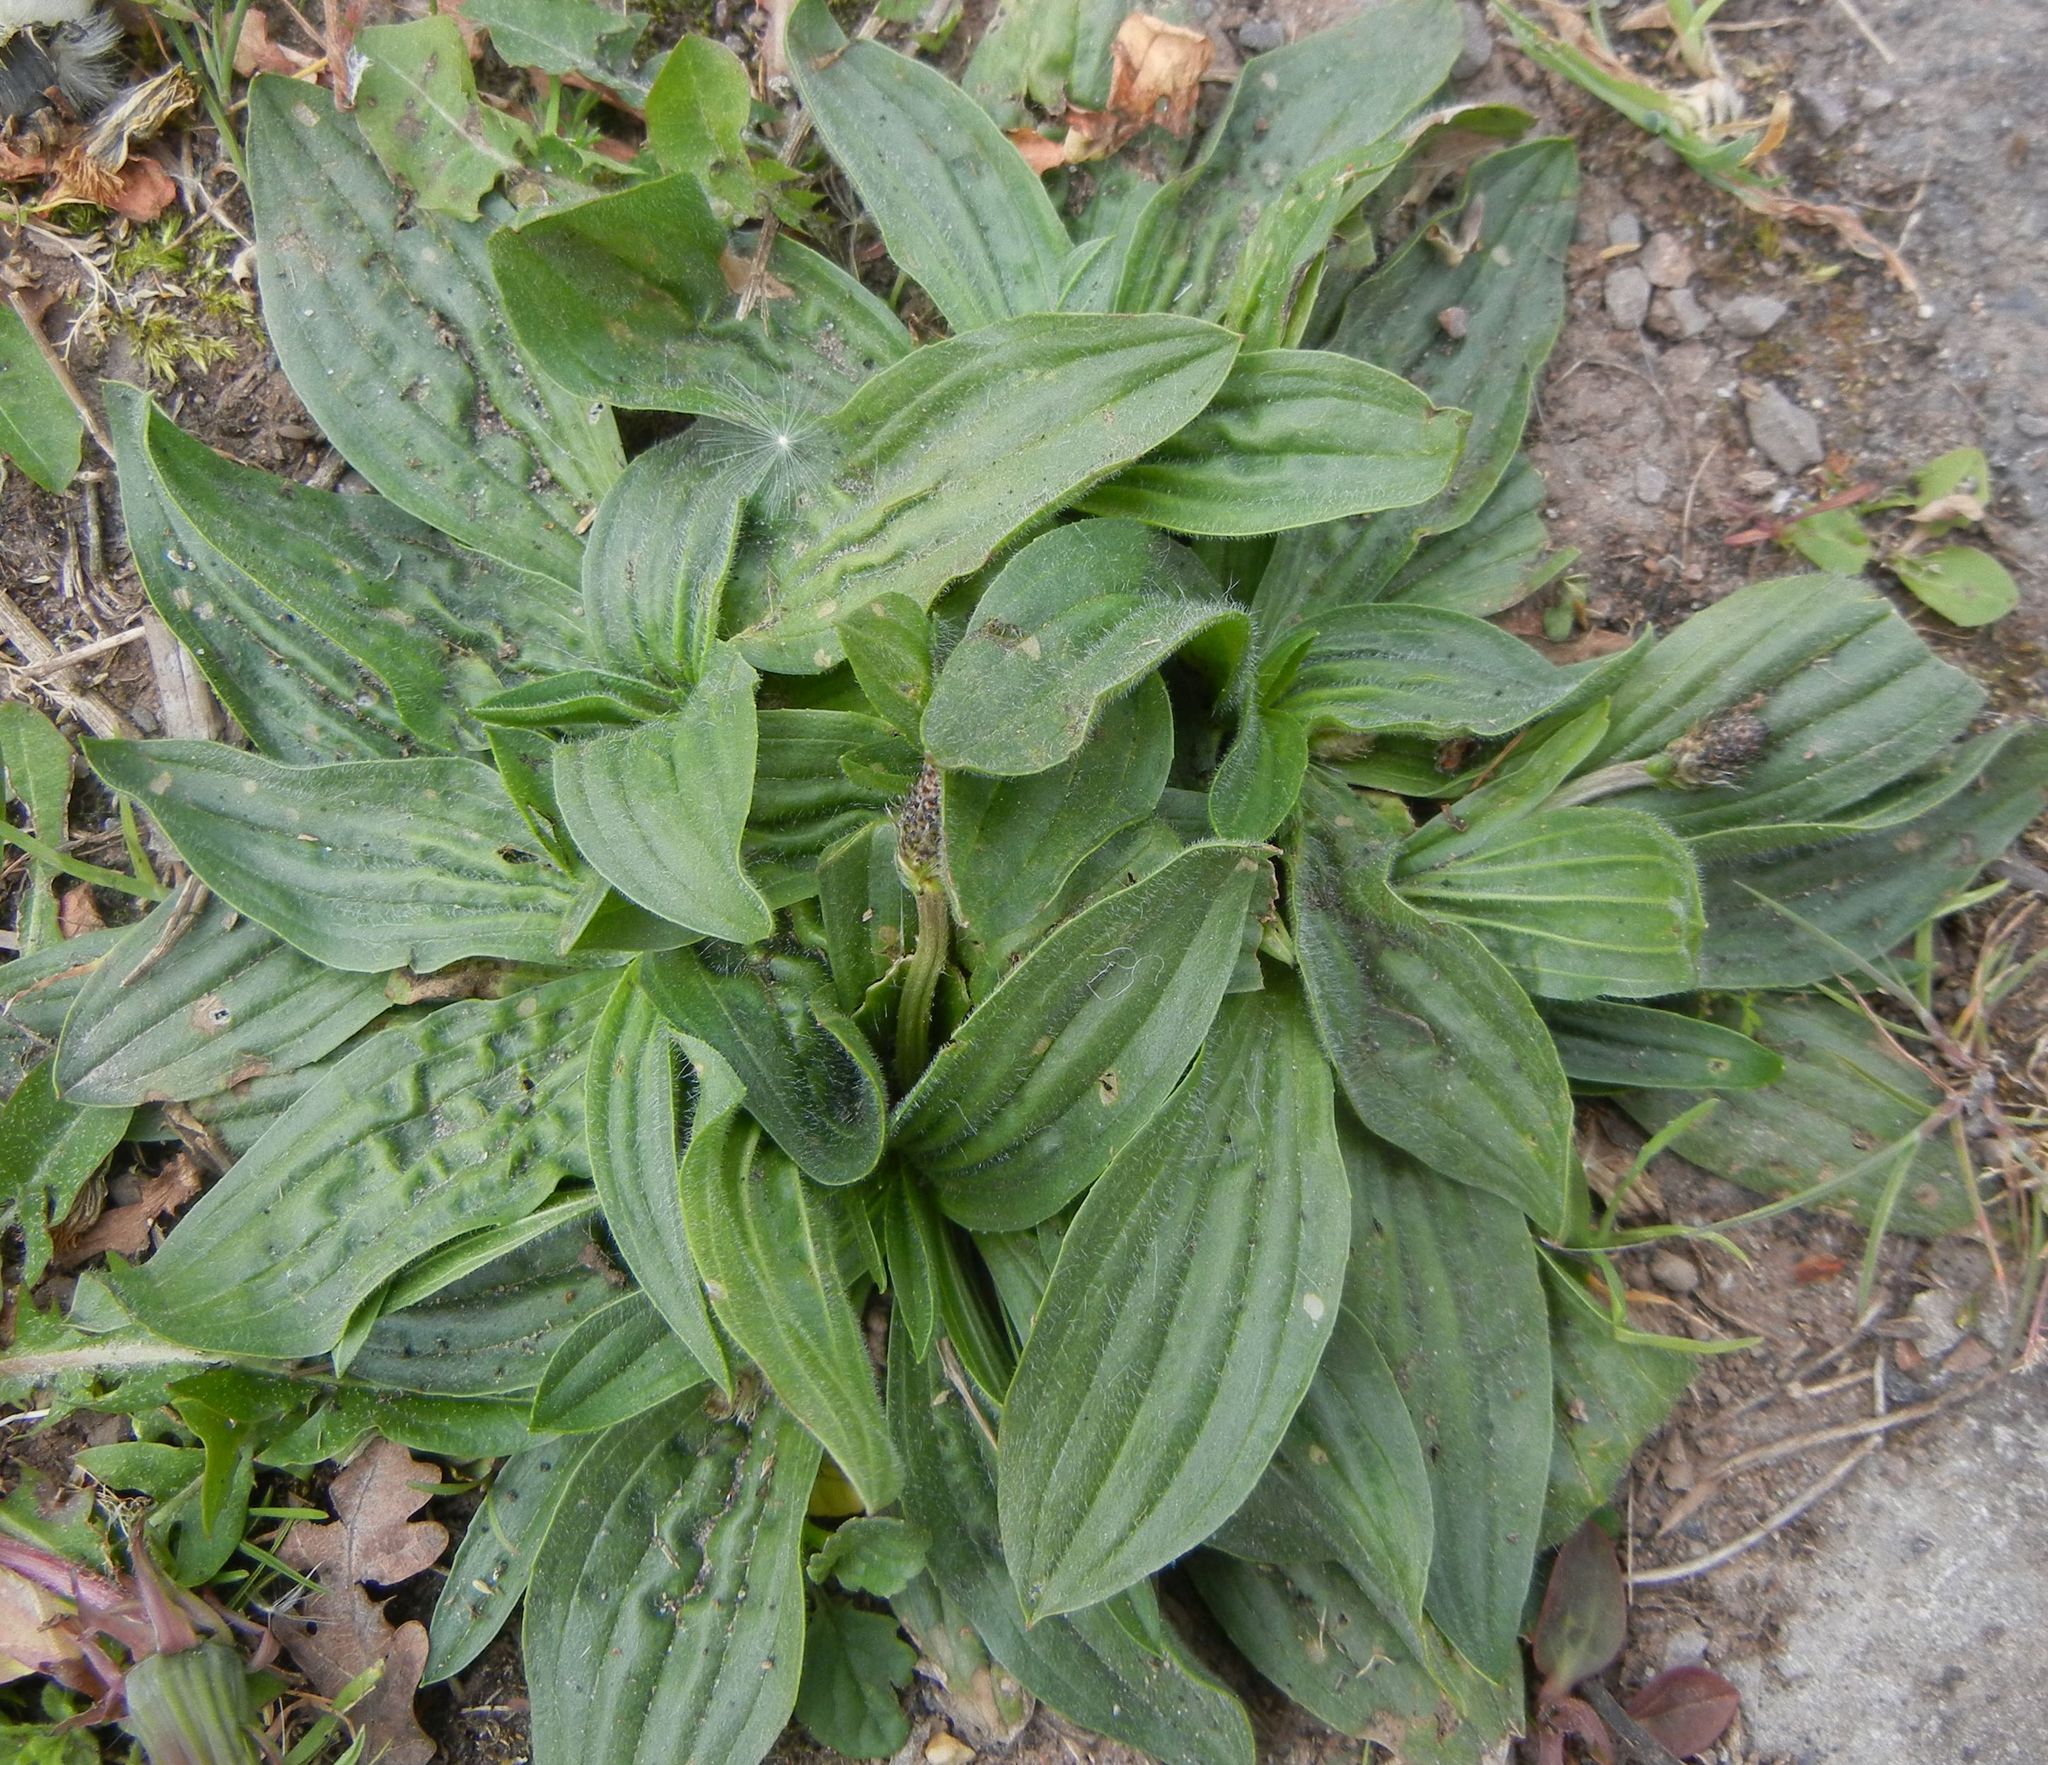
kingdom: Plantae
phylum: Tracheophyta
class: Magnoliopsida
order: Lamiales
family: Plantaginaceae
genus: Plantago
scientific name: Plantago lanceolata
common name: Ribwort plantain
